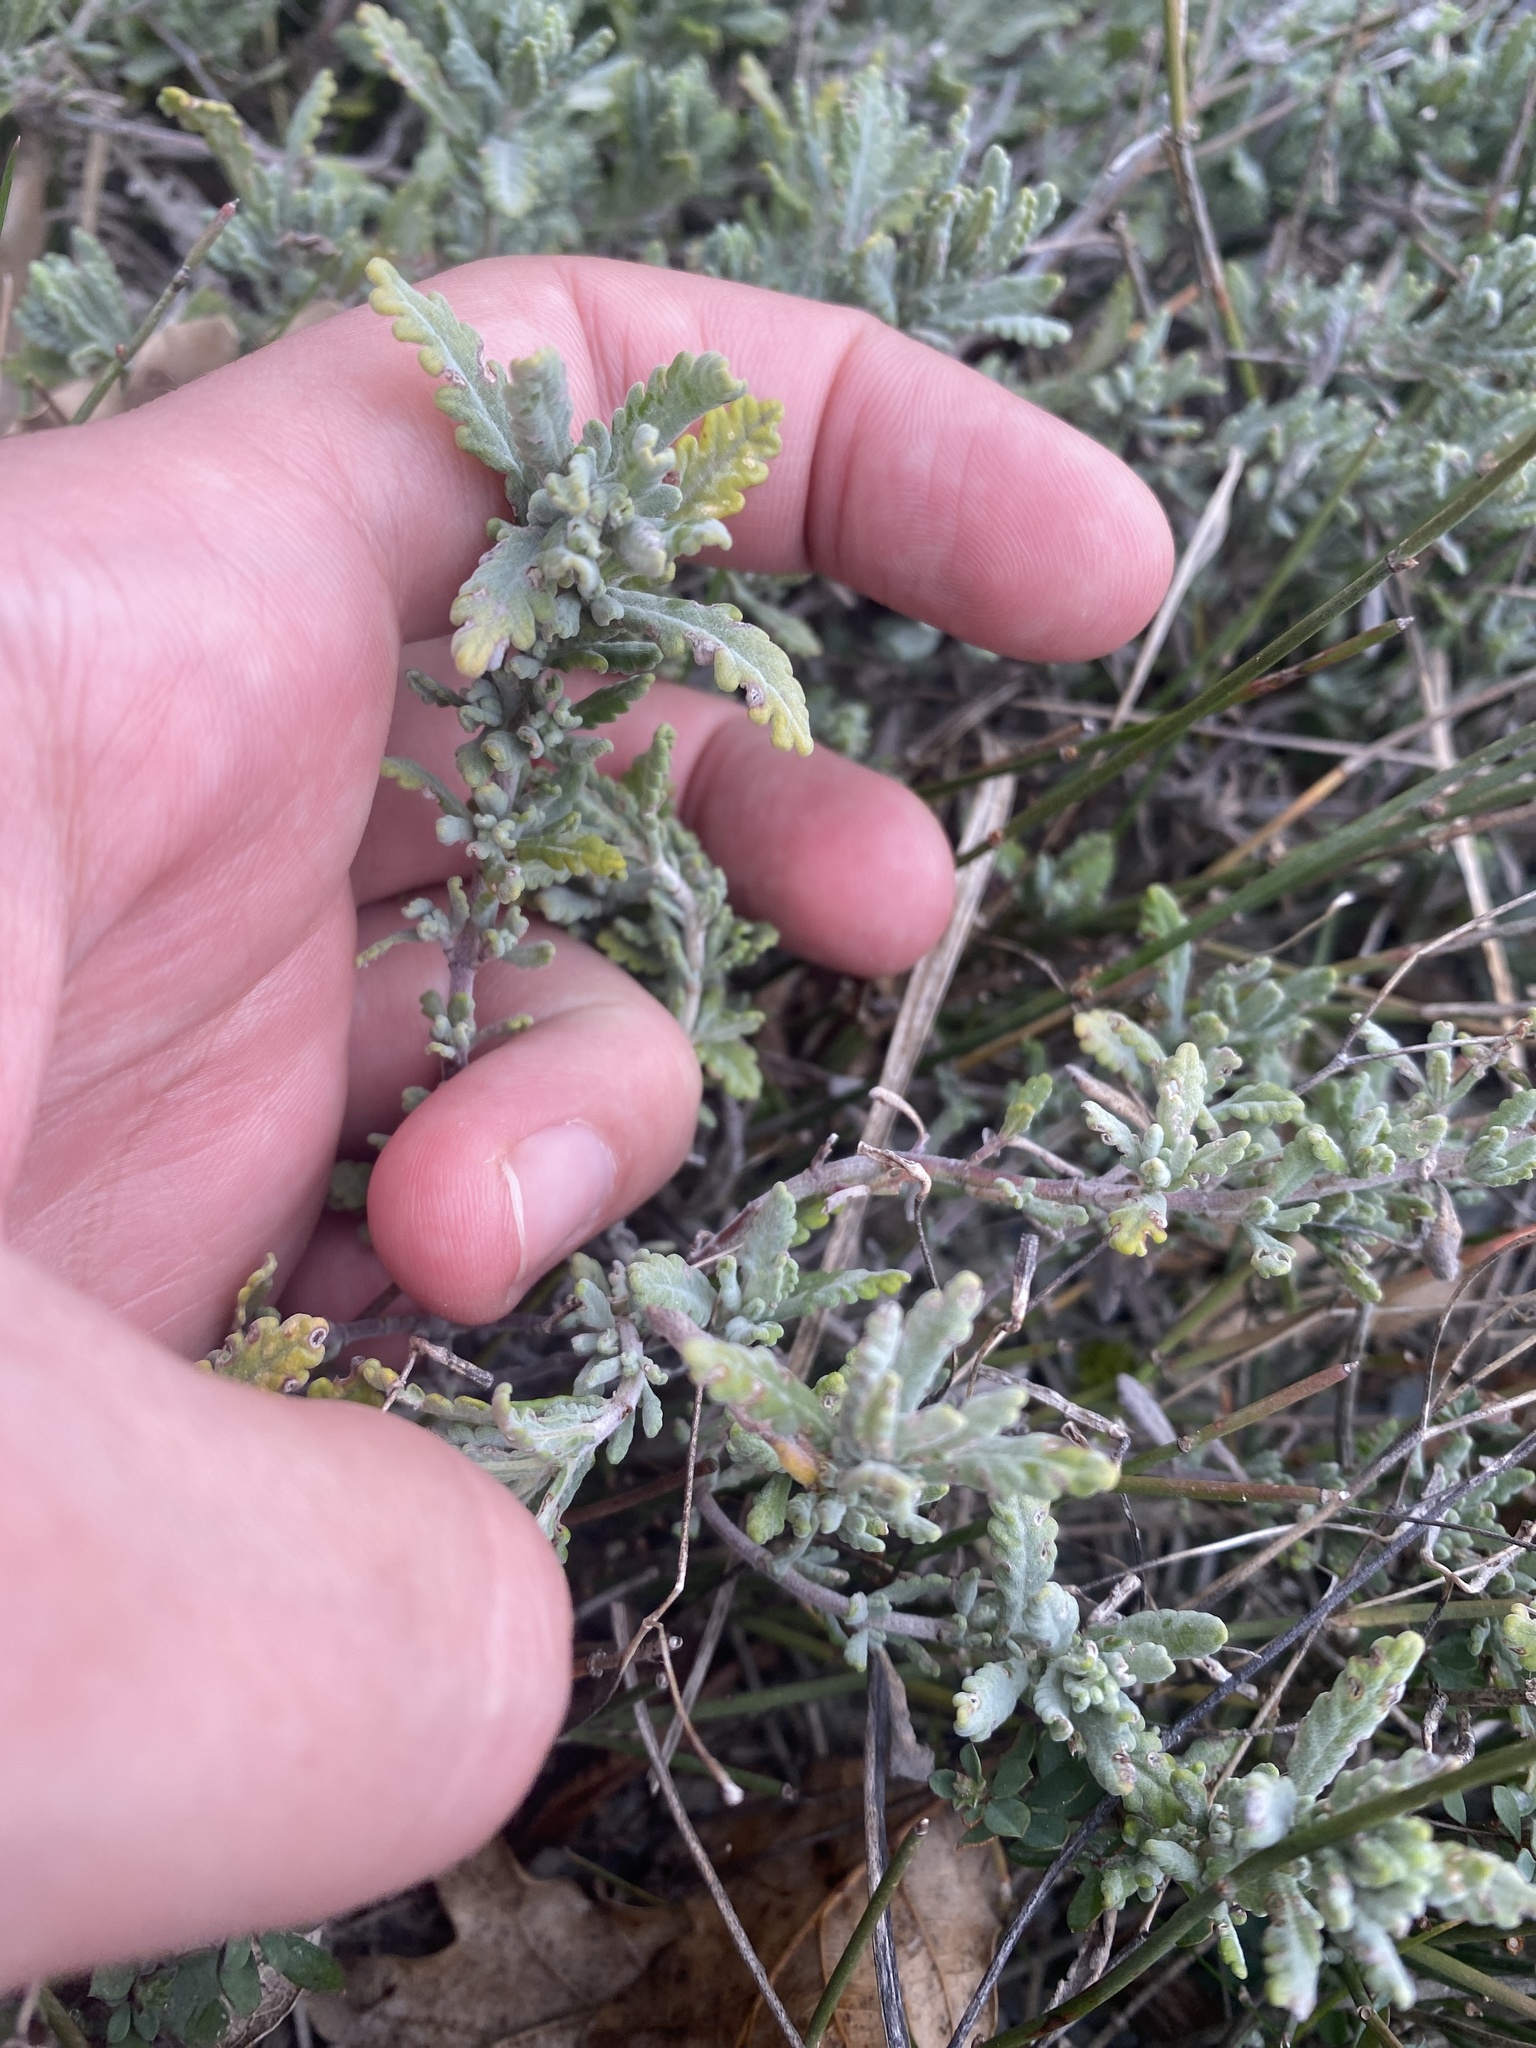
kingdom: Plantae
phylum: Tracheophyta
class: Magnoliopsida
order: Lamiales
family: Lamiaceae
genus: Teucrium
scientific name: Teucrium polium
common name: Poley
